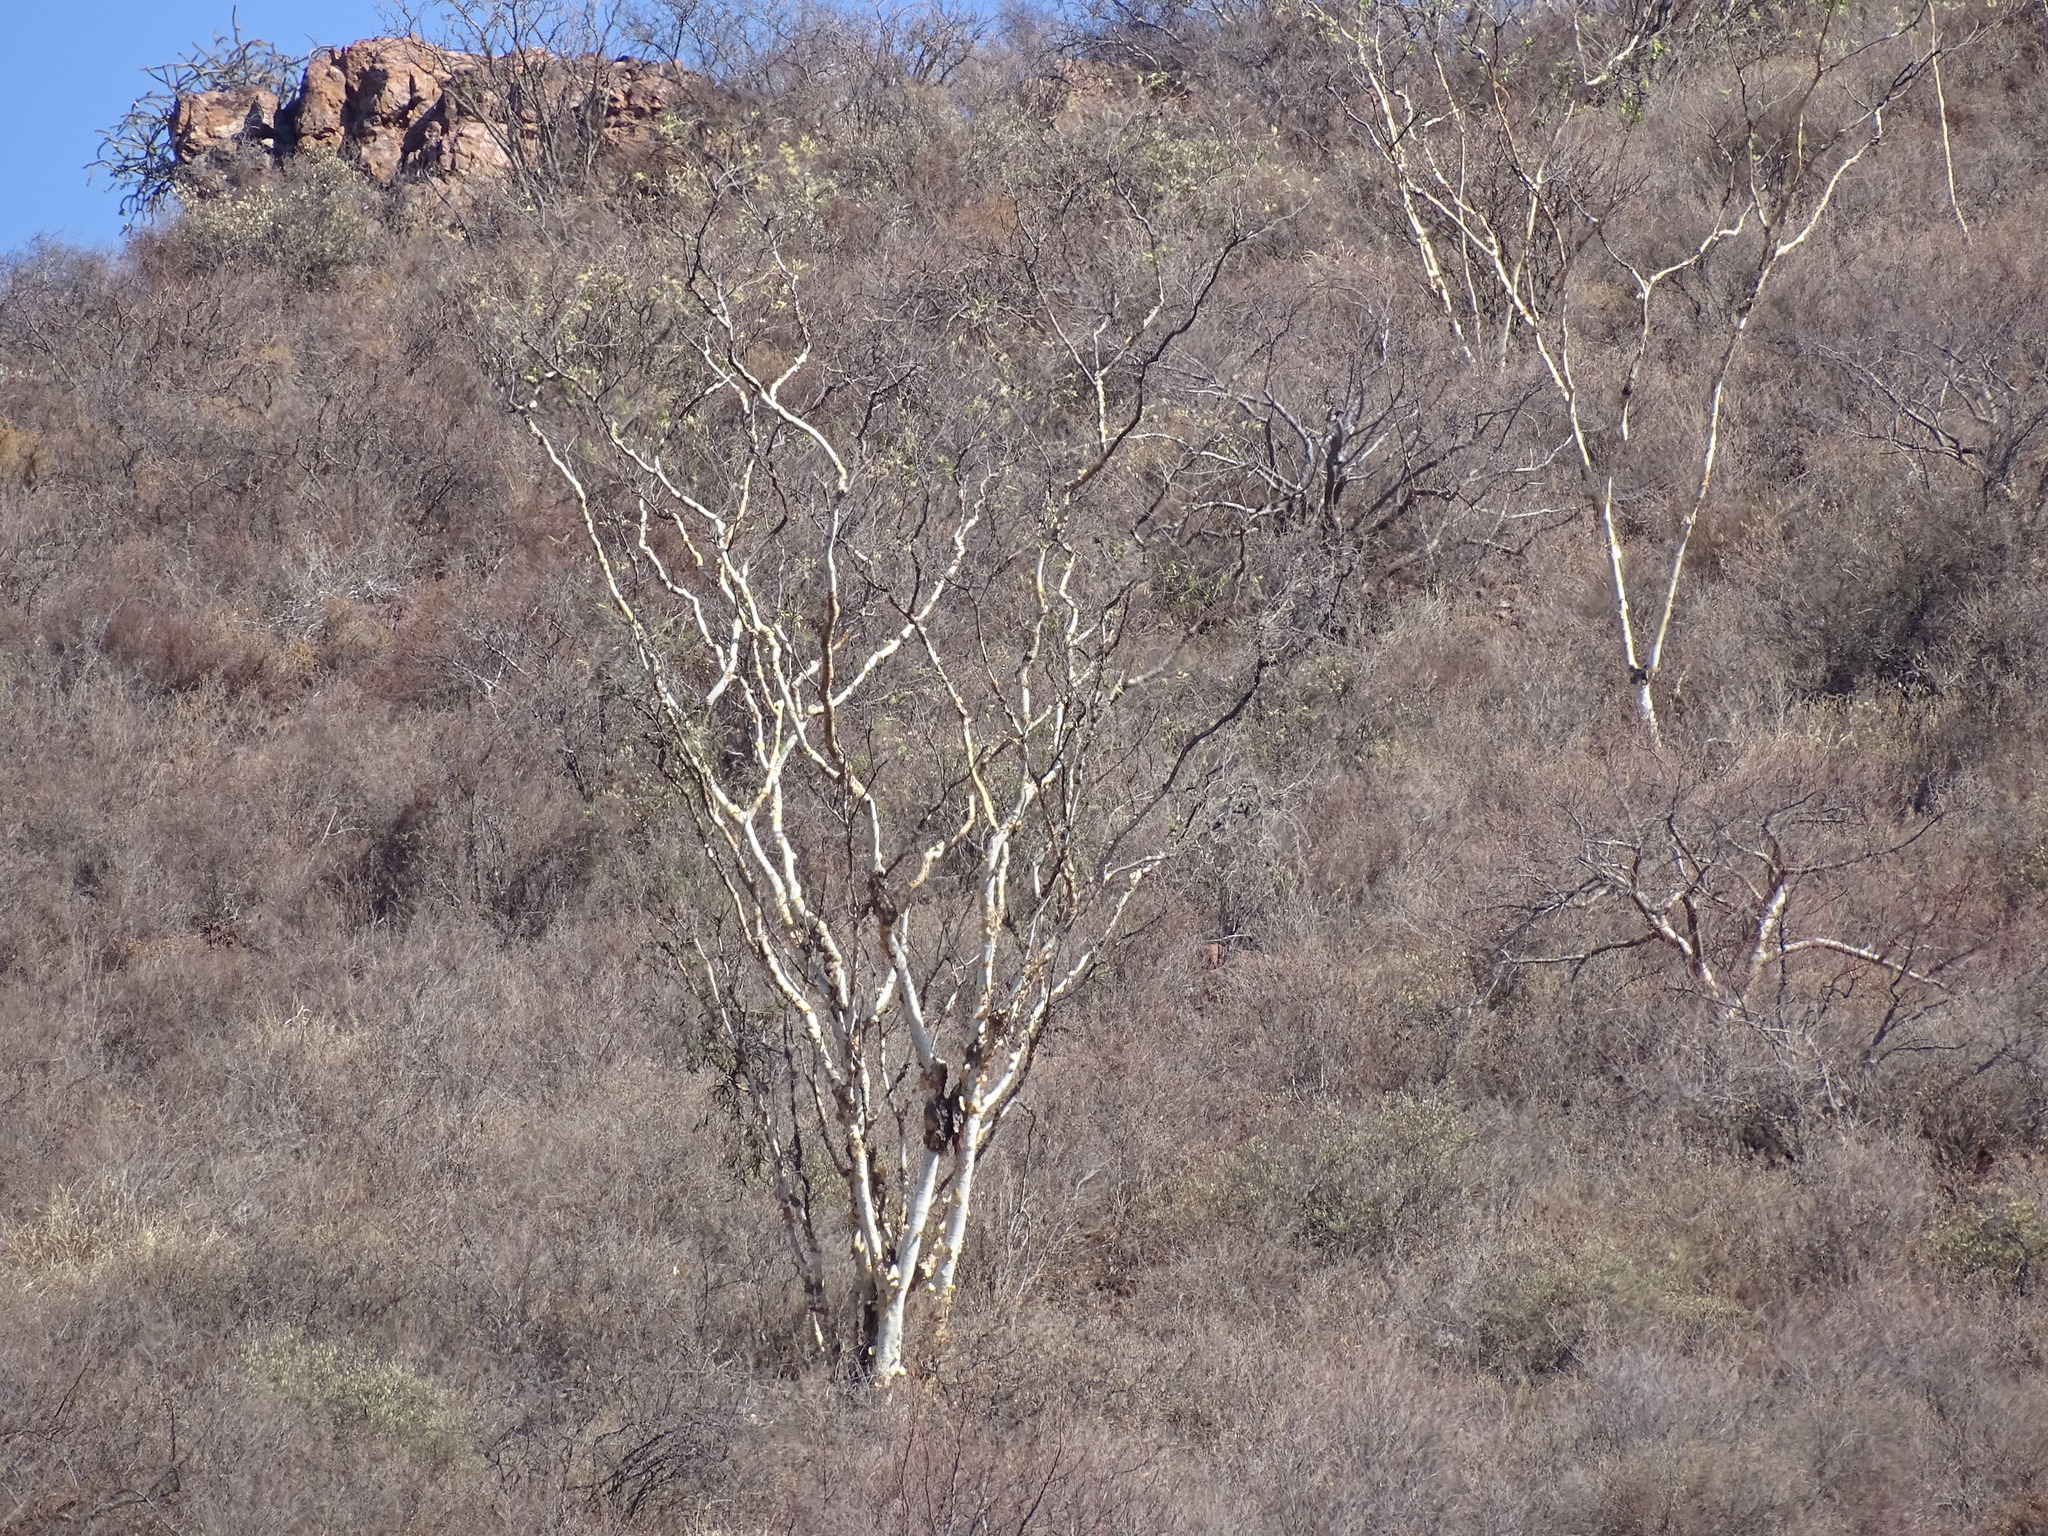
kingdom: Plantae
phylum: Tracheophyta
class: Magnoliopsida
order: Fabales
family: Fabaceae
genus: Mariosousa
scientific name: Mariosousa heterophylla
